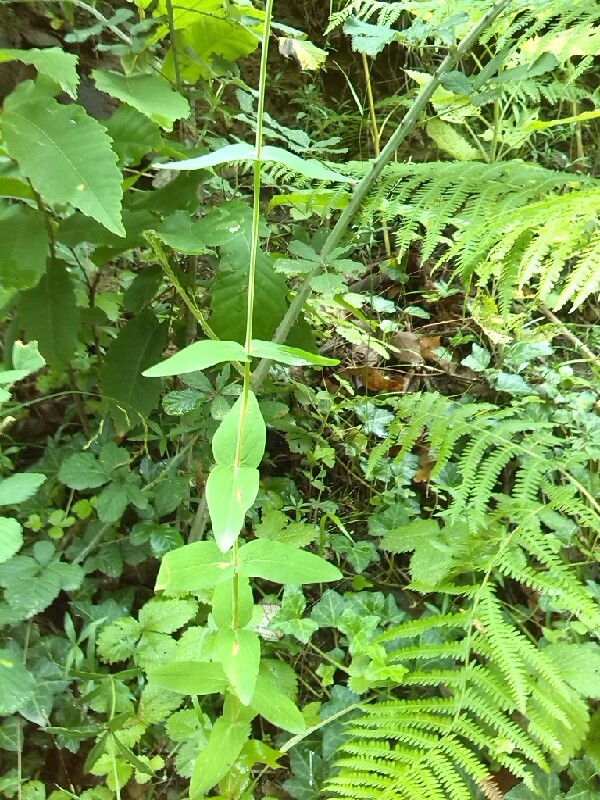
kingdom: Plantae
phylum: Tracheophyta
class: Magnoliopsida
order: Malpighiales
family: Hypericaceae
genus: Hypericum
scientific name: Hypericum montanum
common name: Pale st. john's-wort
